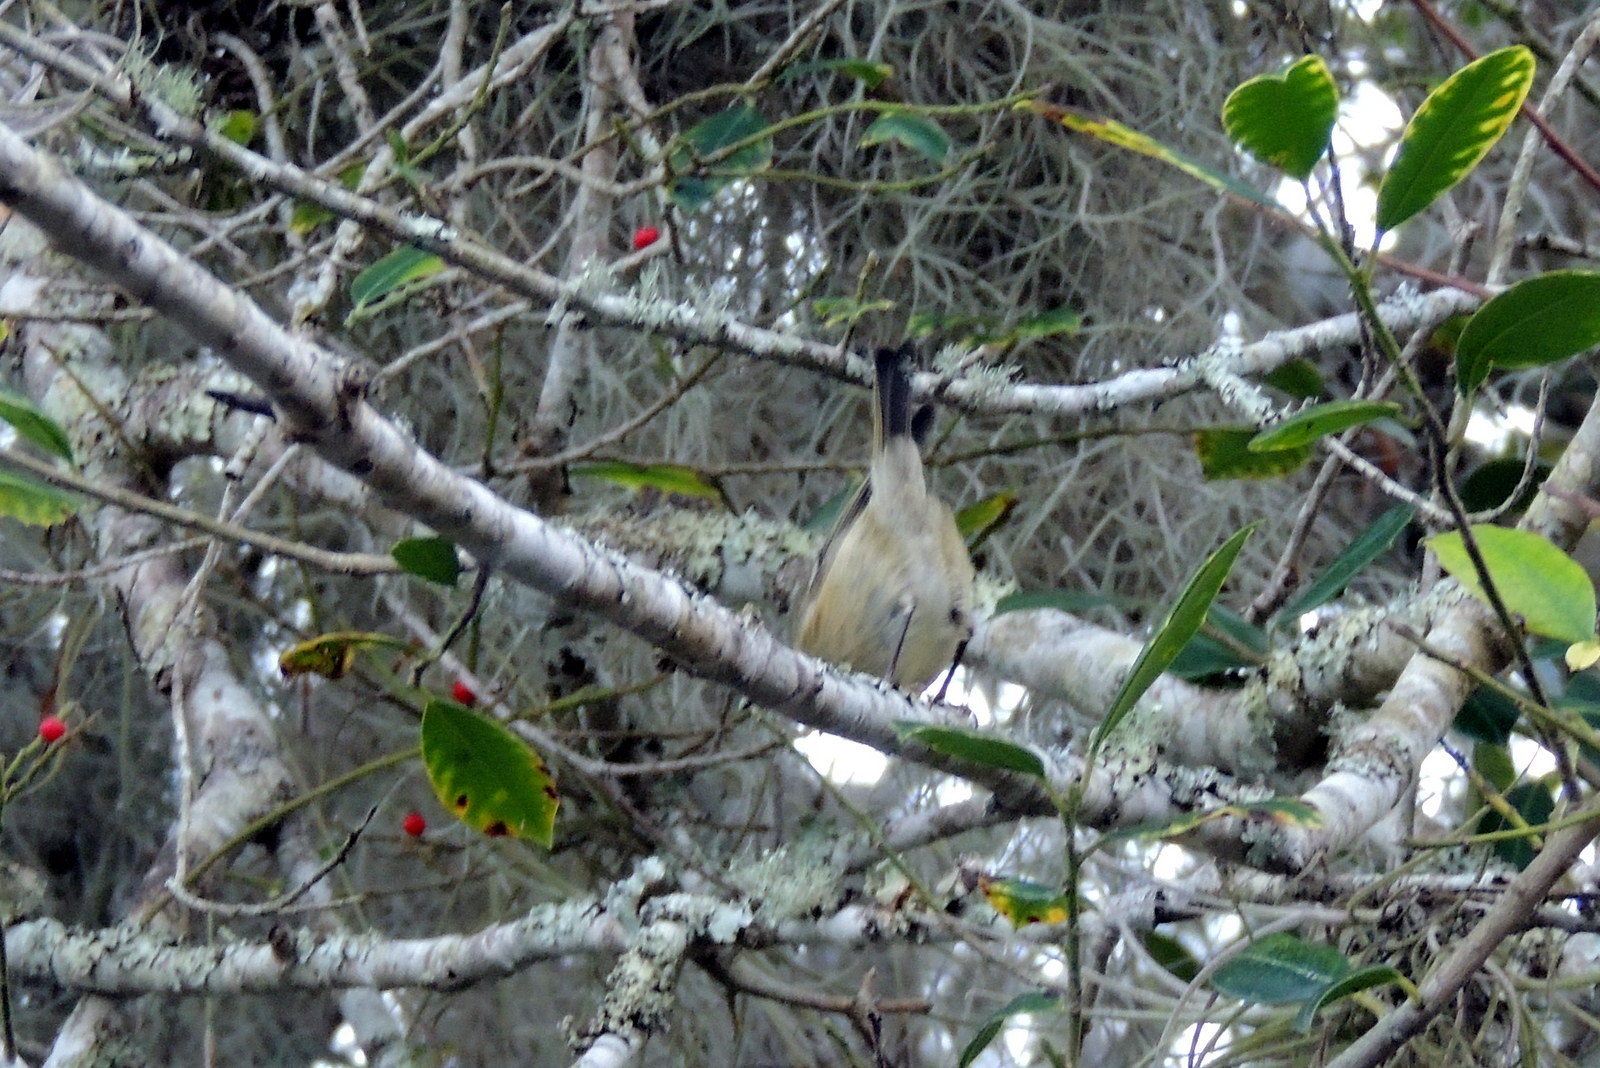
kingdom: Animalia
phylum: Chordata
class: Aves
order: Passeriformes
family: Regulidae
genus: Regulus
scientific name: Regulus calendula
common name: Ruby-crowned kinglet
